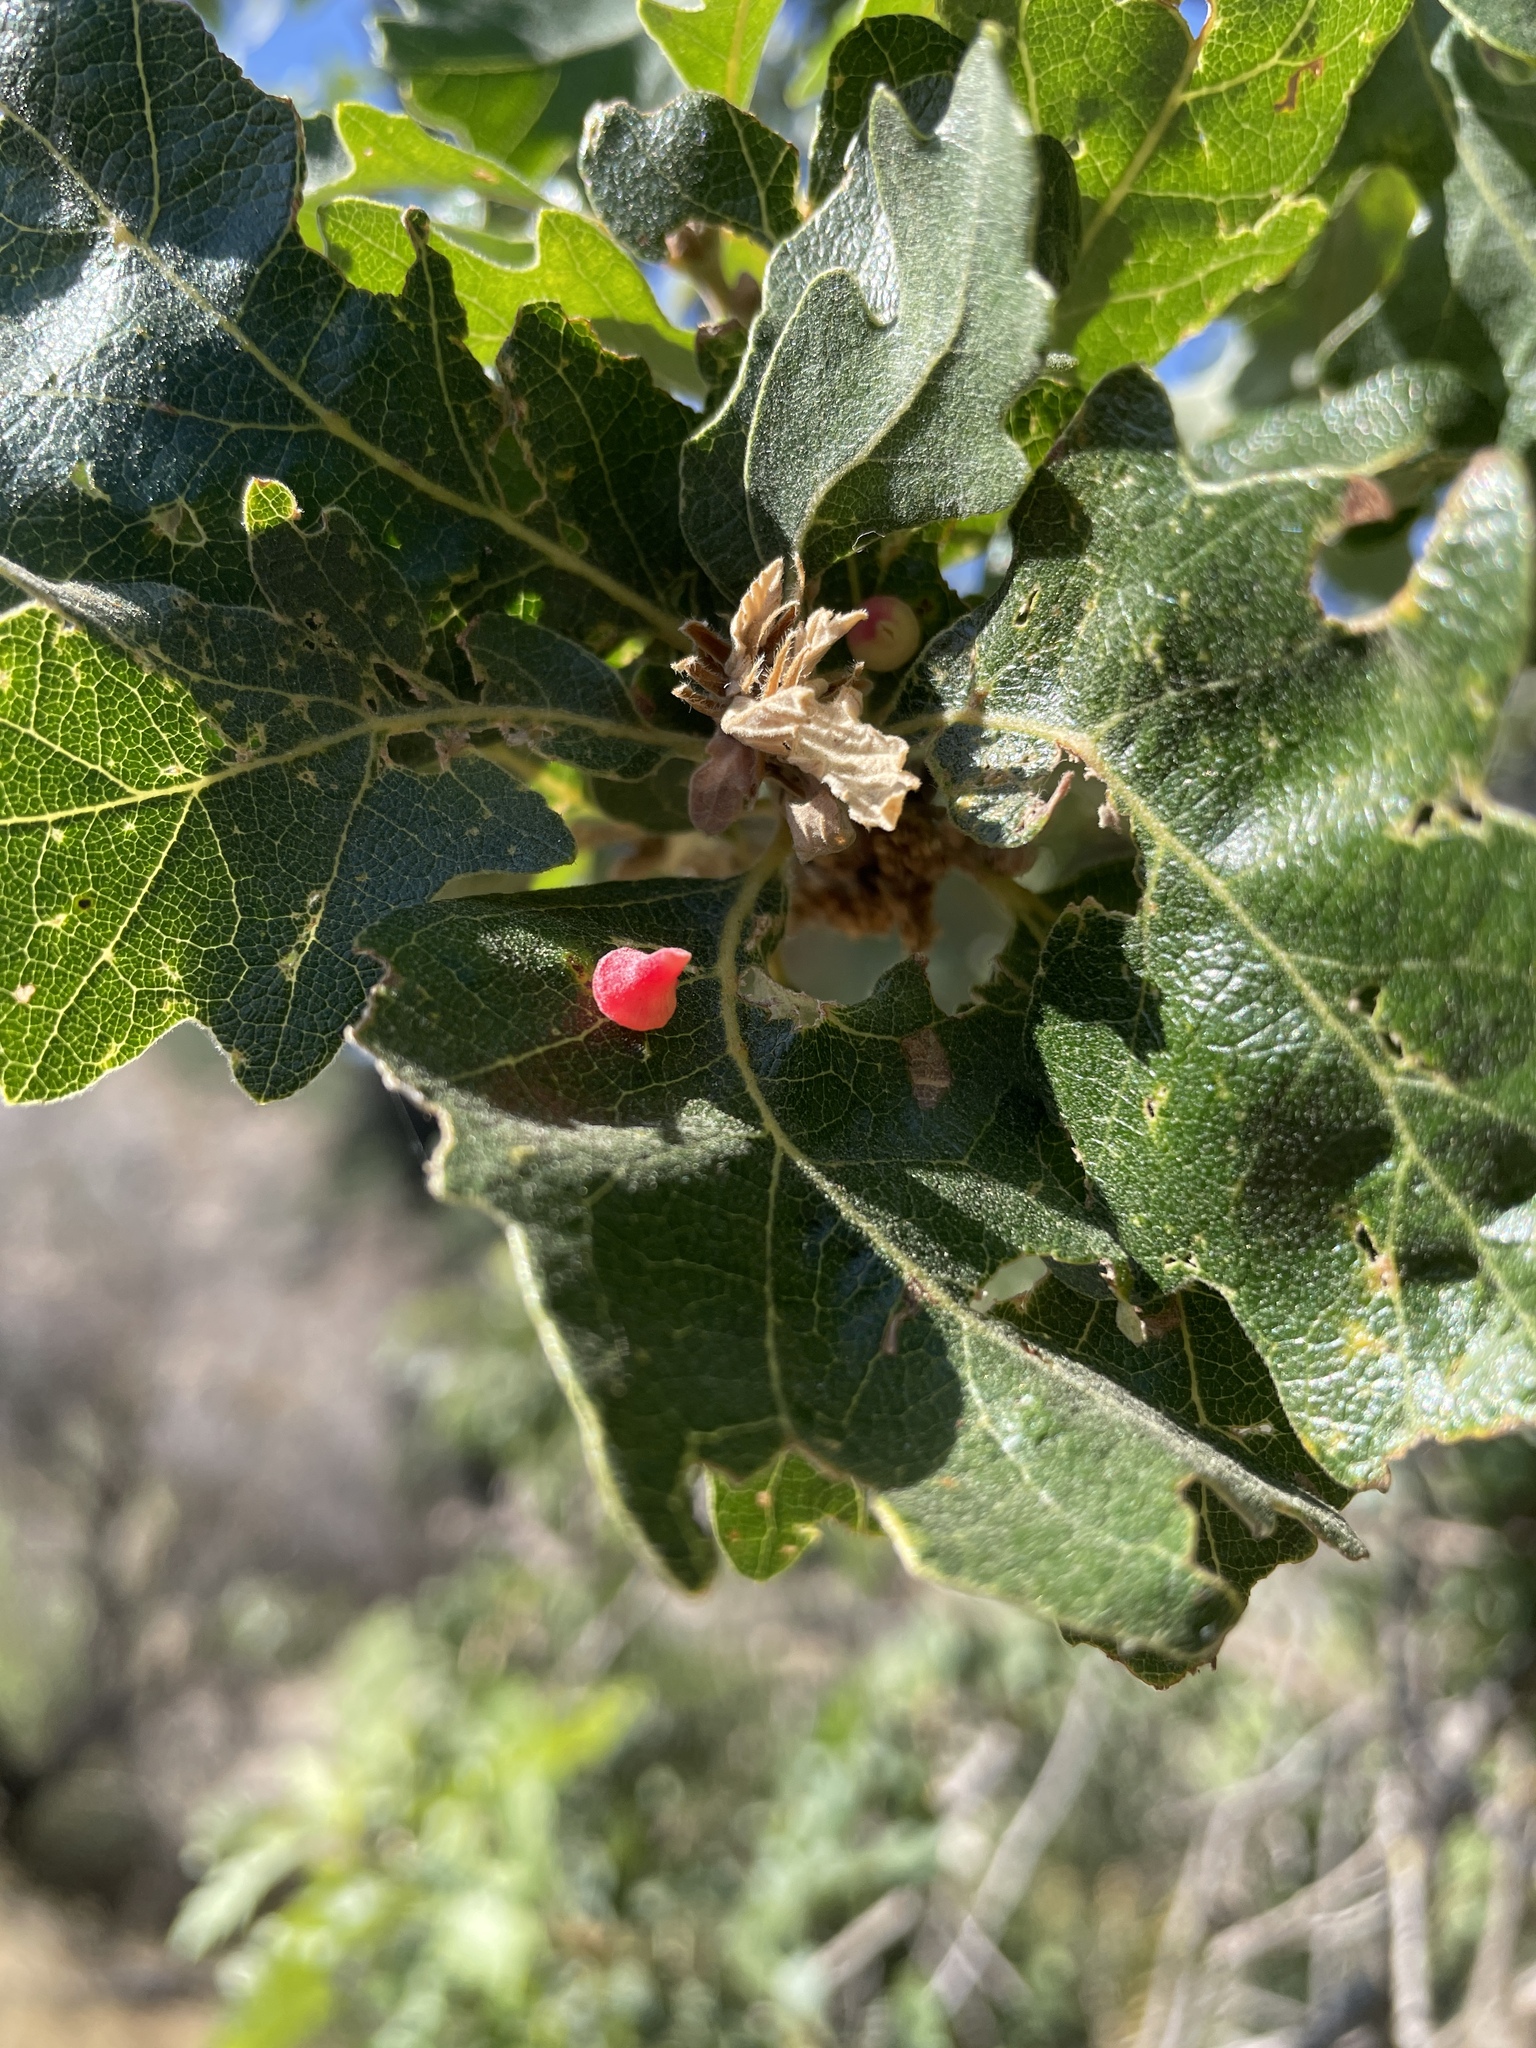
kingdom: Animalia
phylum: Arthropoda
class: Insecta
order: Hymenoptera
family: Cynipidae
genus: Andricus
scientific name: Andricus
